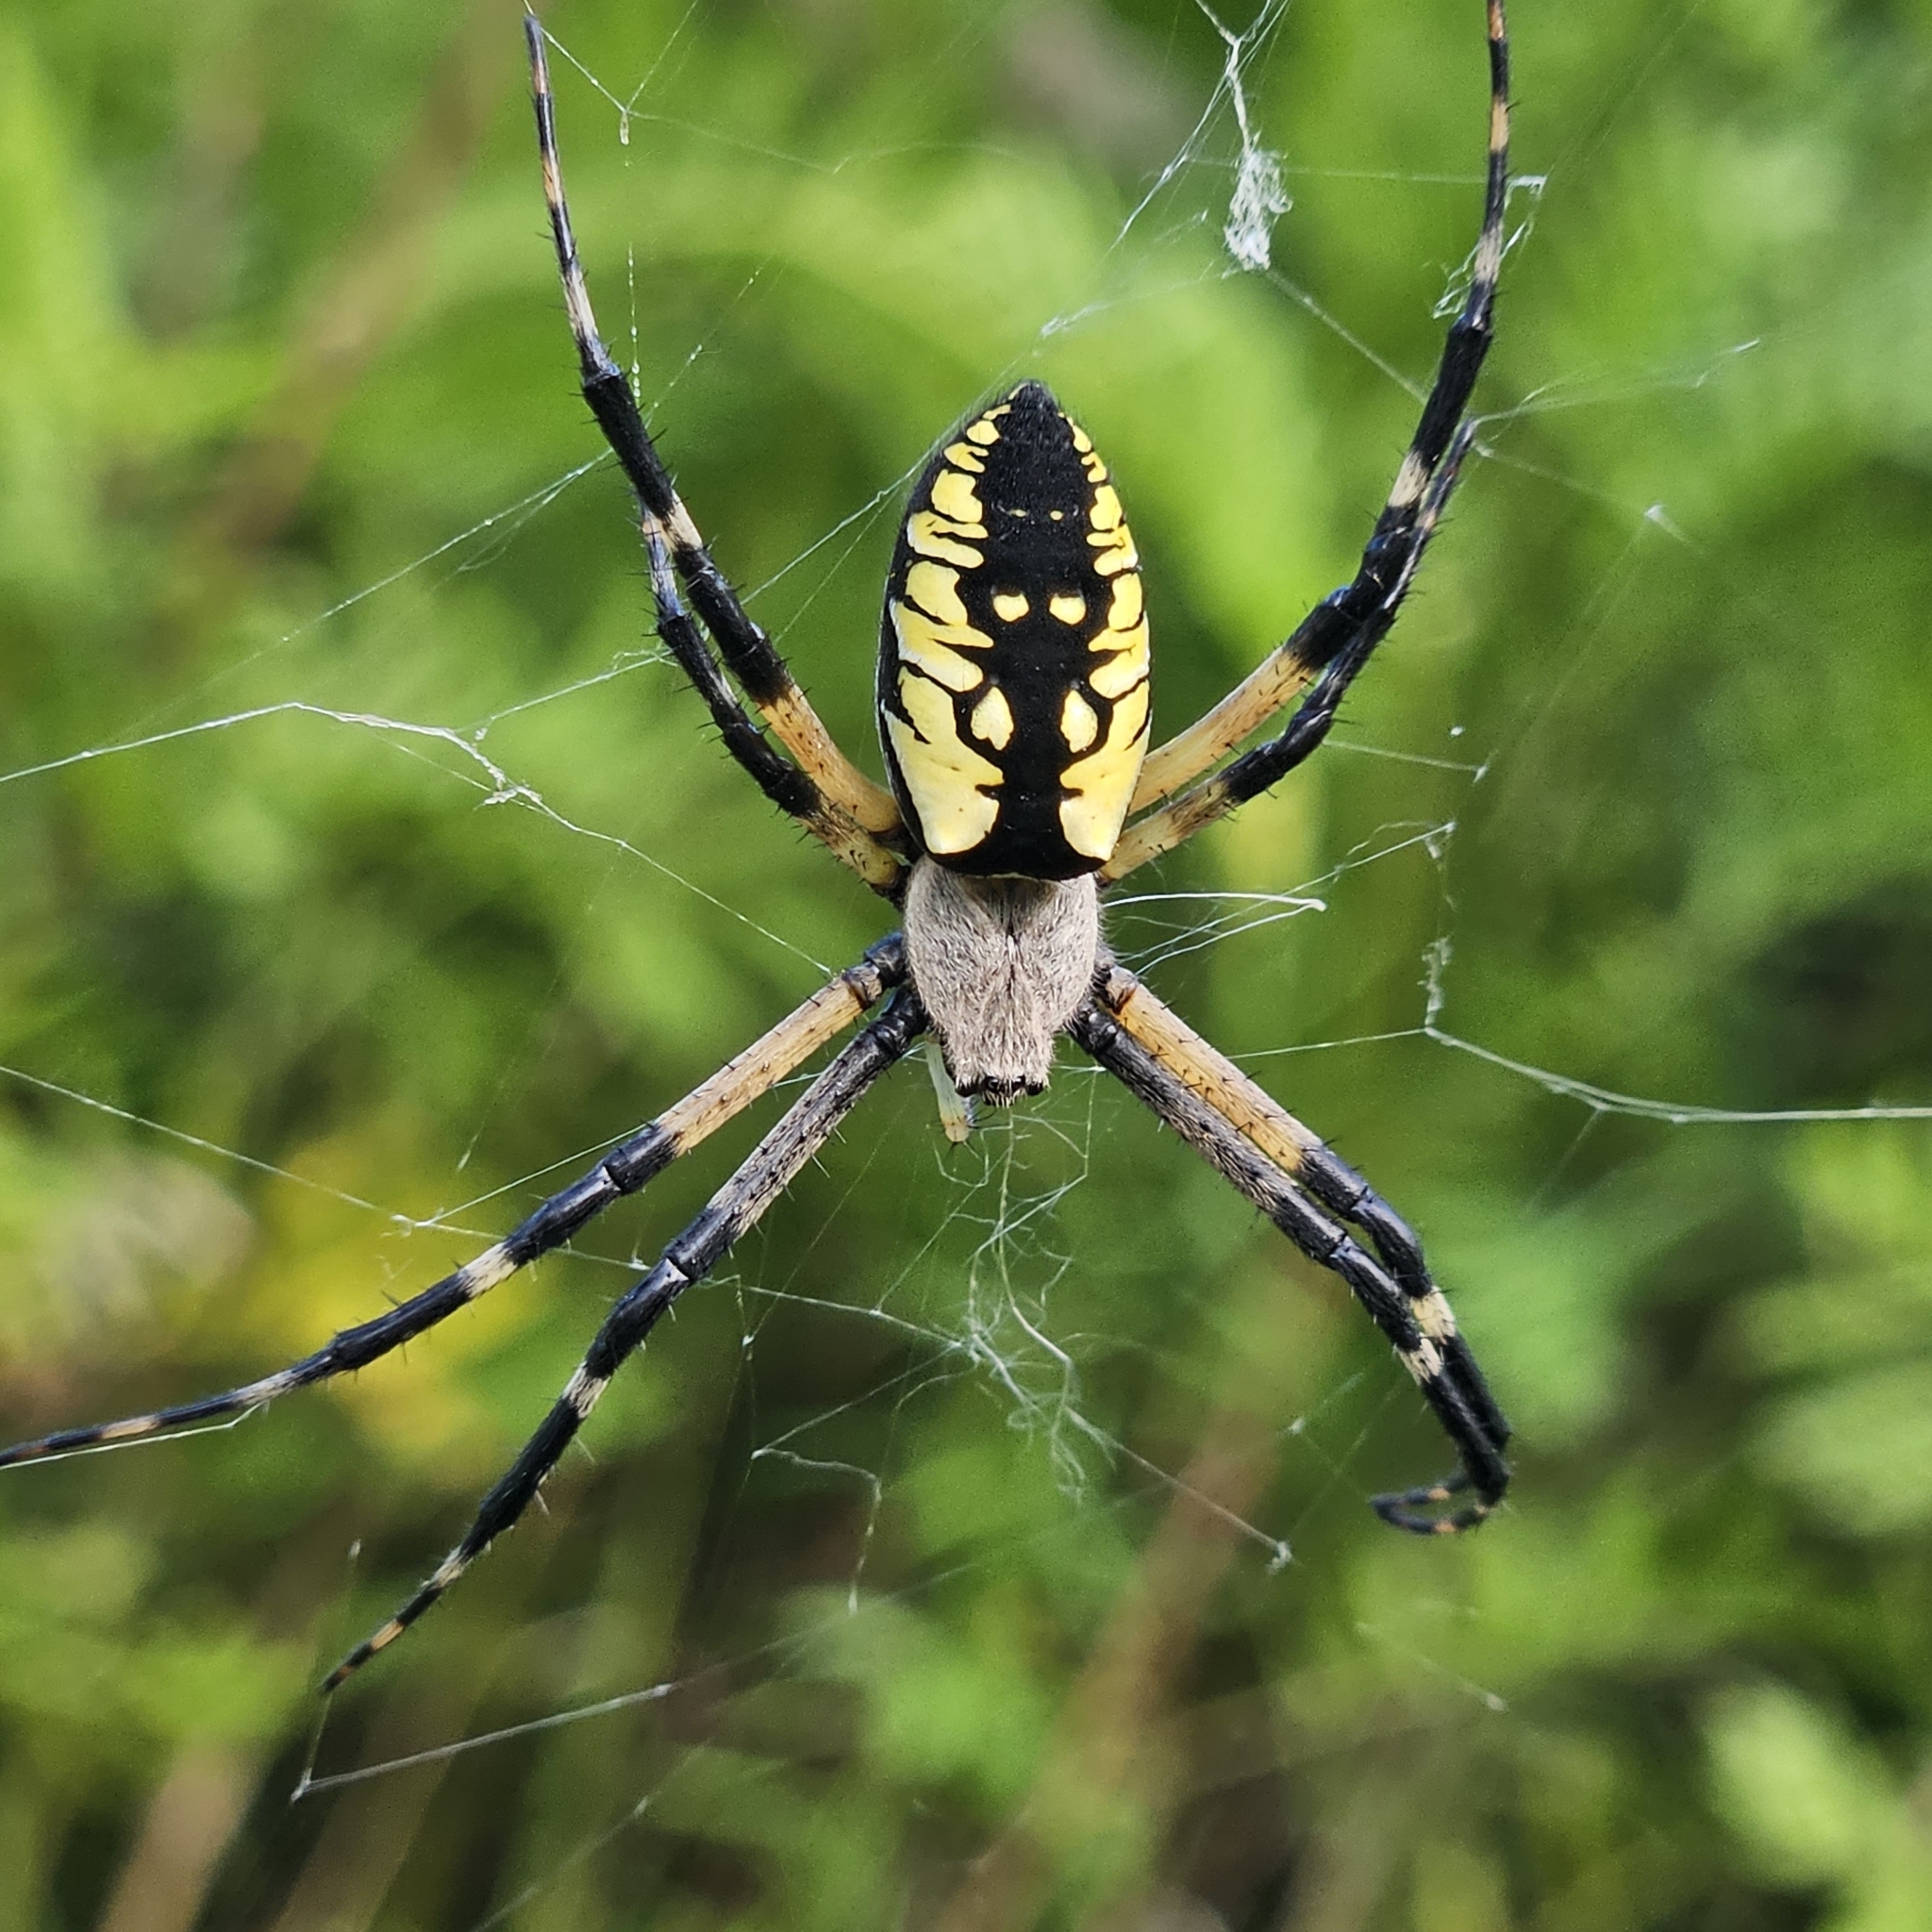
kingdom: Animalia
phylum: Arthropoda
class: Arachnida
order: Araneae
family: Araneidae
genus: Argiope
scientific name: Argiope aurantia
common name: Orb weavers
